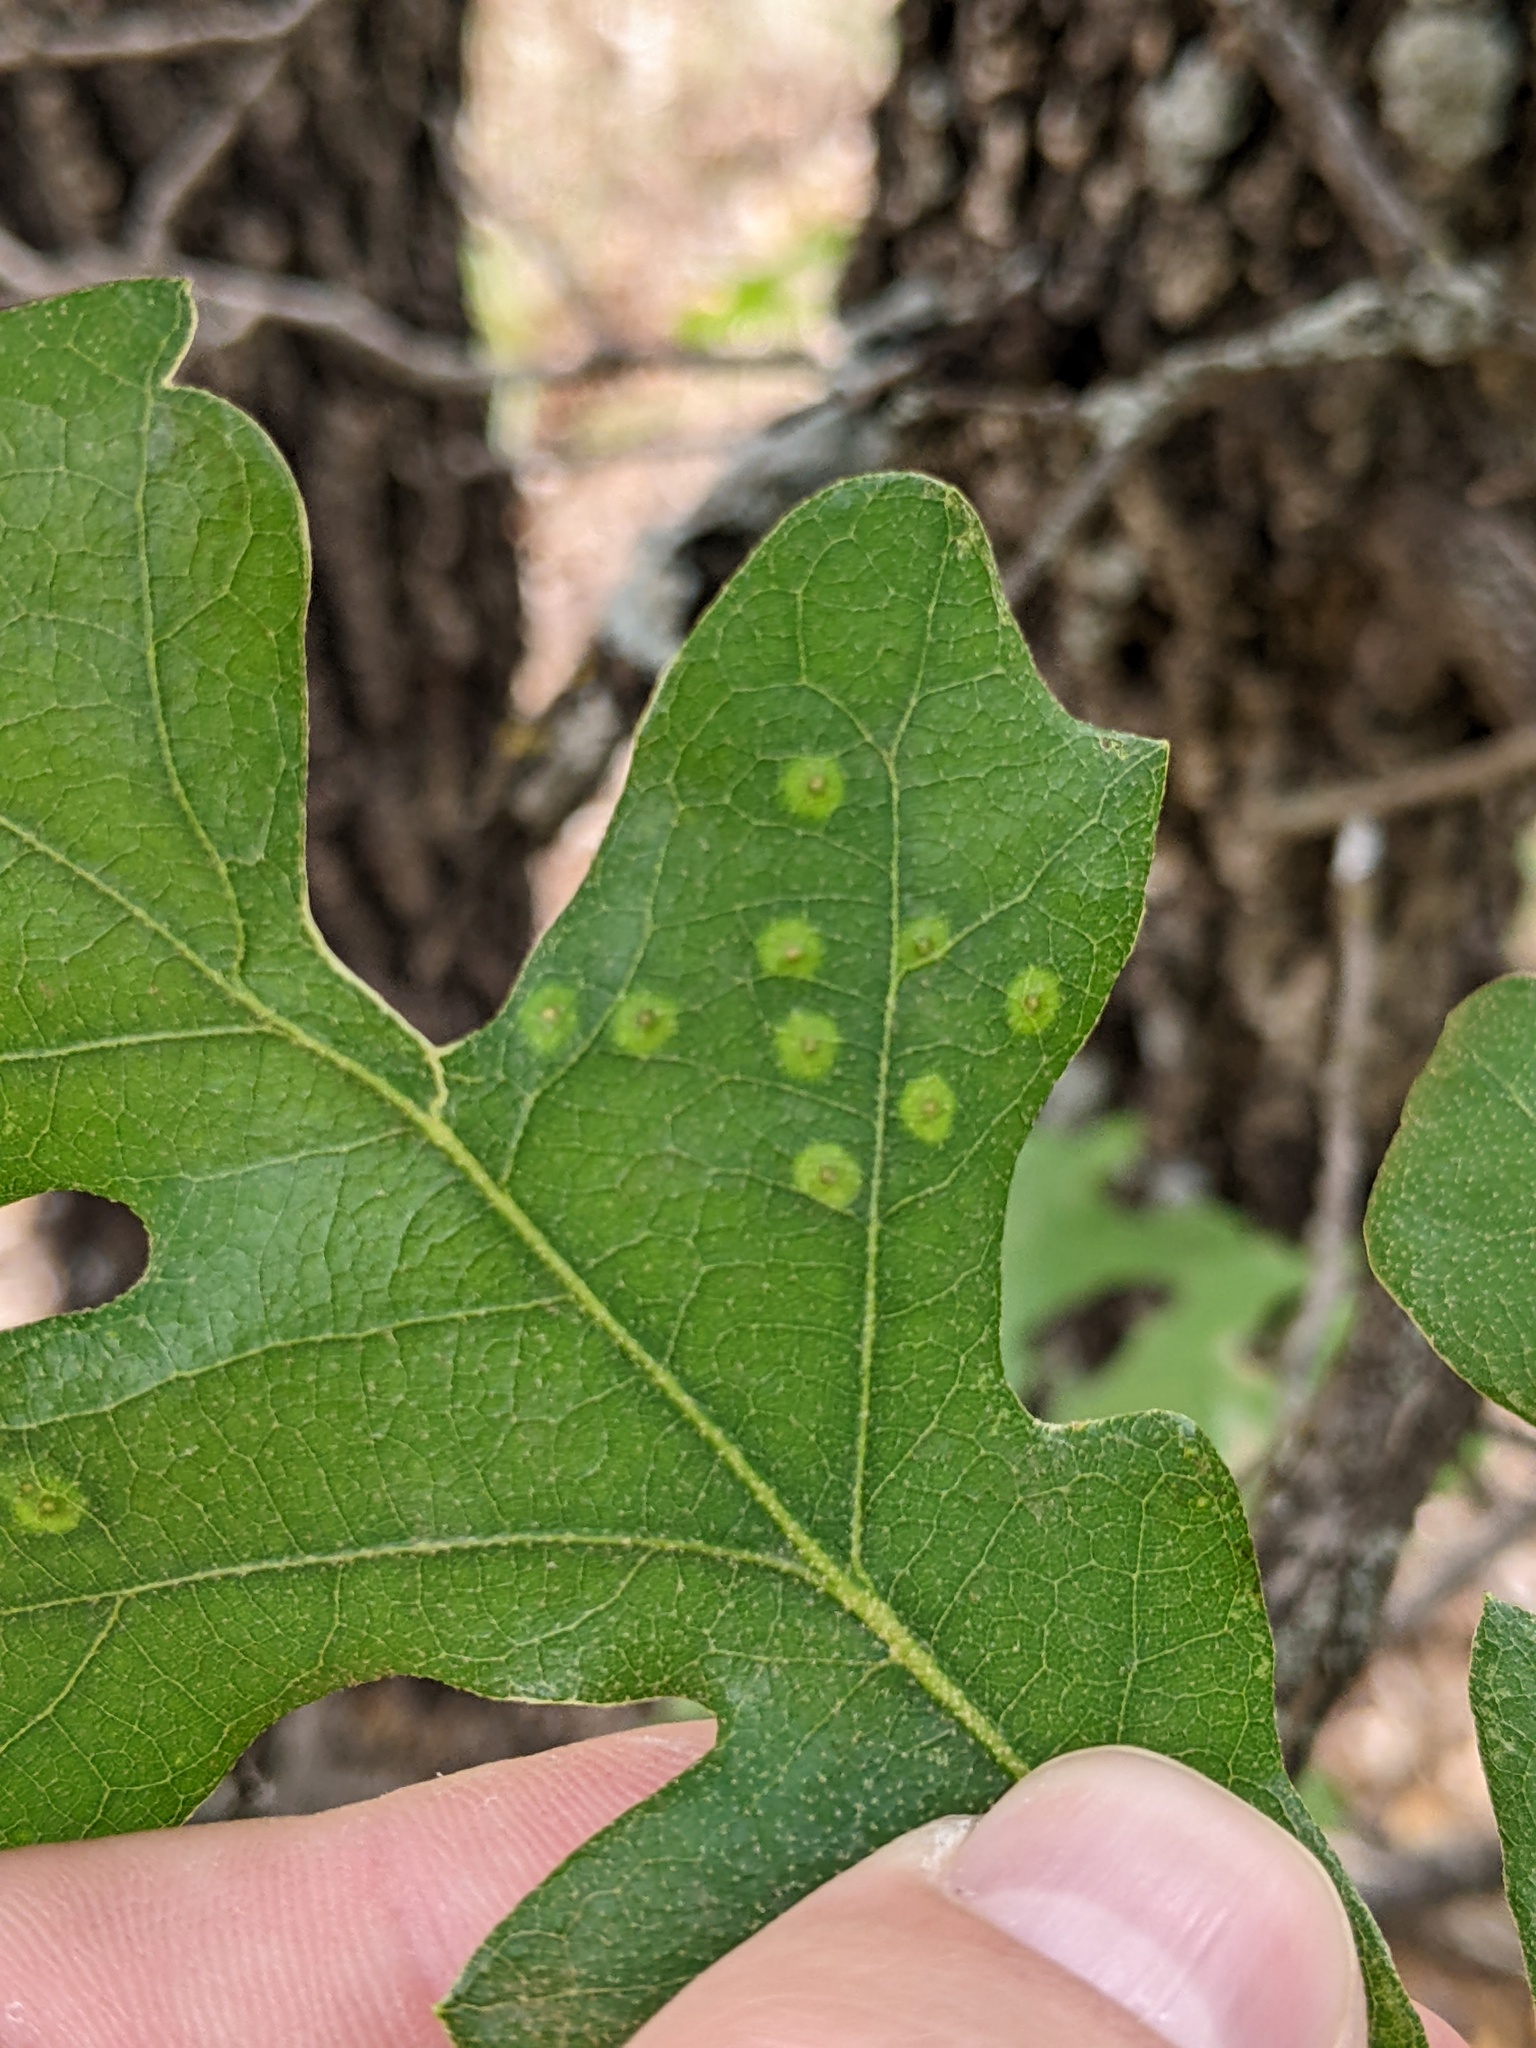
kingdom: Animalia
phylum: Arthropoda
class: Insecta
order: Hymenoptera
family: Cynipidae
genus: Neuroterus
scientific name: Neuroterus
